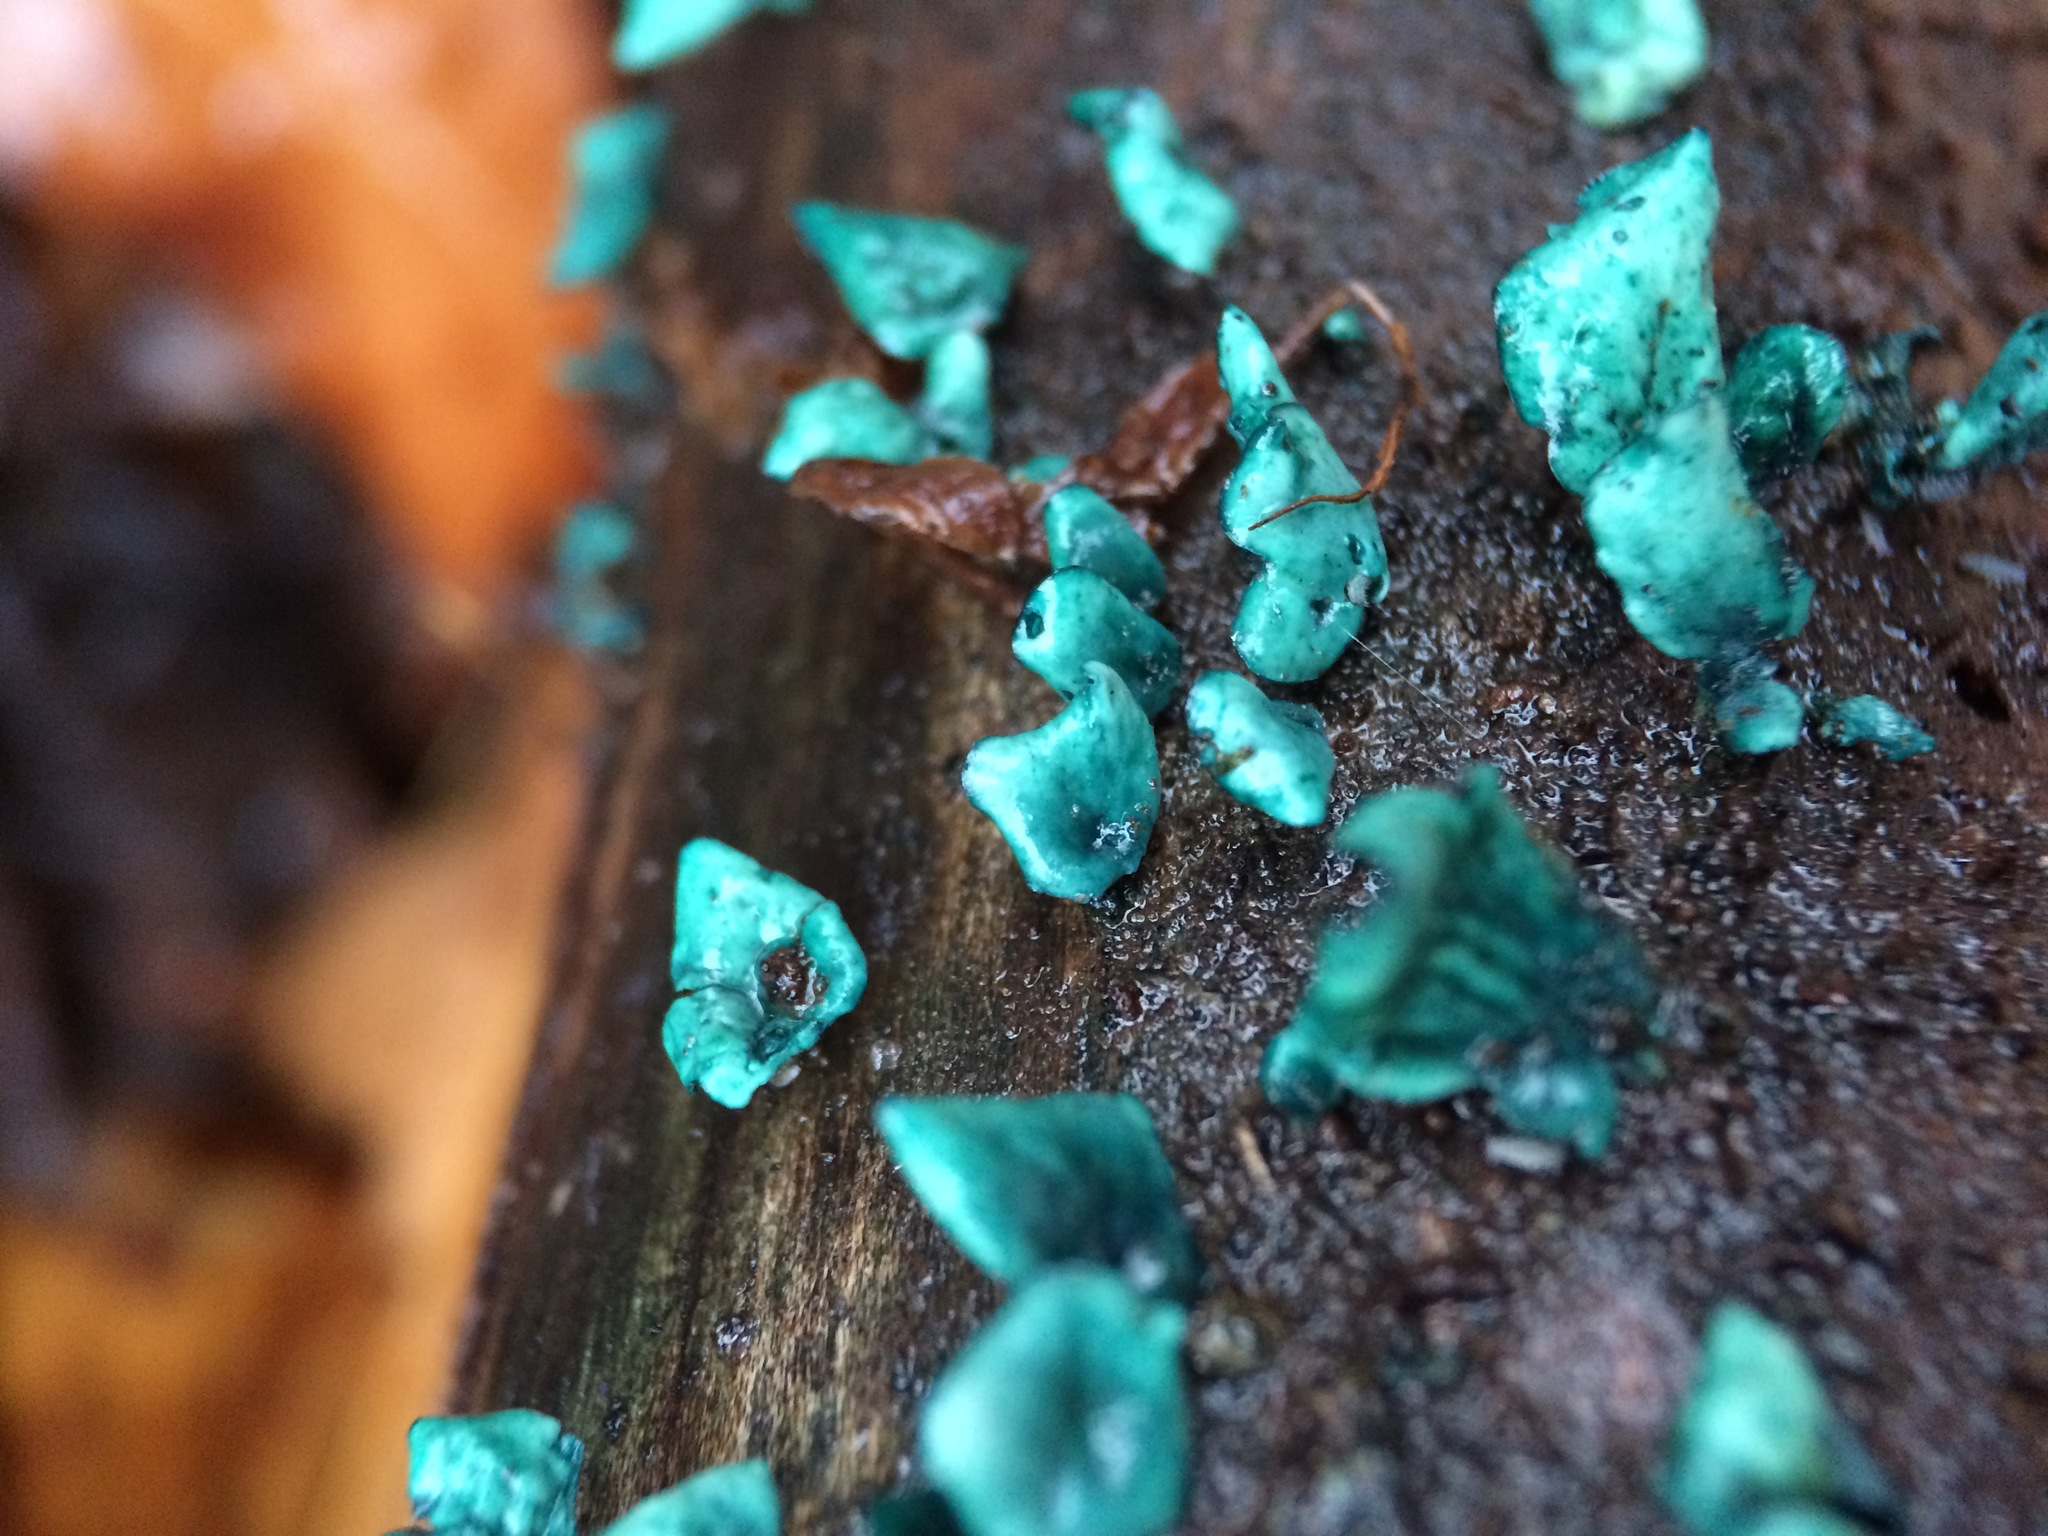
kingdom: Fungi
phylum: Ascomycota
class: Leotiomycetes
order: Helotiales
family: Chlorociboriaceae
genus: Chlorociboria
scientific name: Chlorociboria aeruginascens
